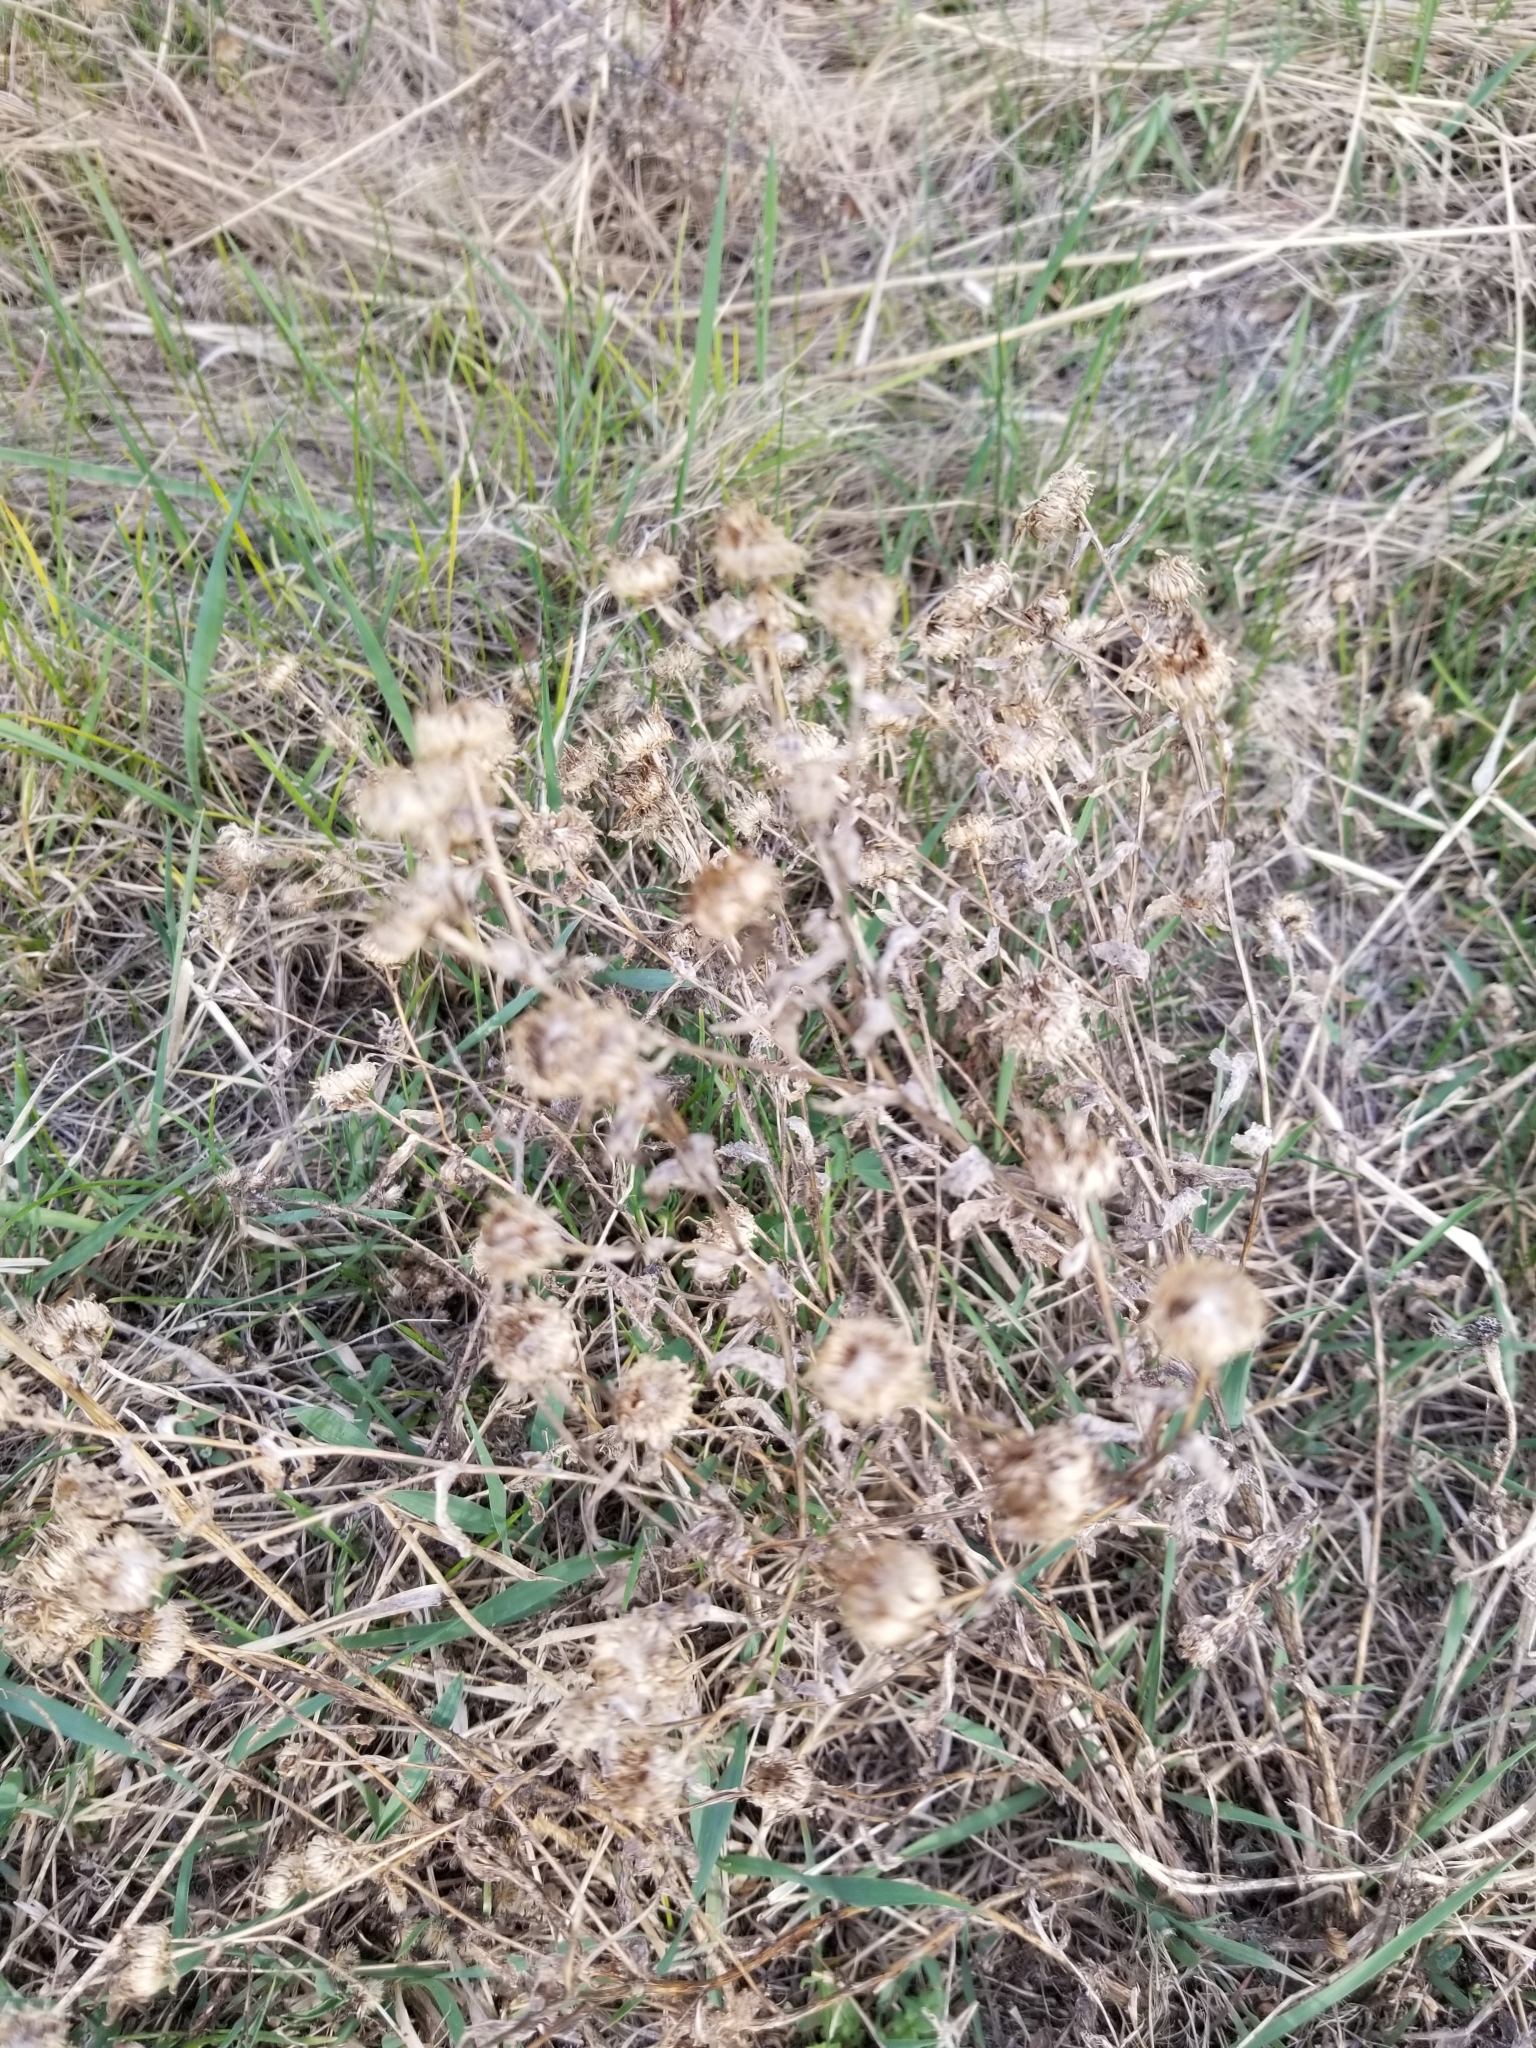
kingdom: Plantae
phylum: Tracheophyta
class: Magnoliopsida
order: Asterales
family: Asteraceae
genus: Grindelia
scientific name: Grindelia squarrosa
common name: Curly-cup gumweed
